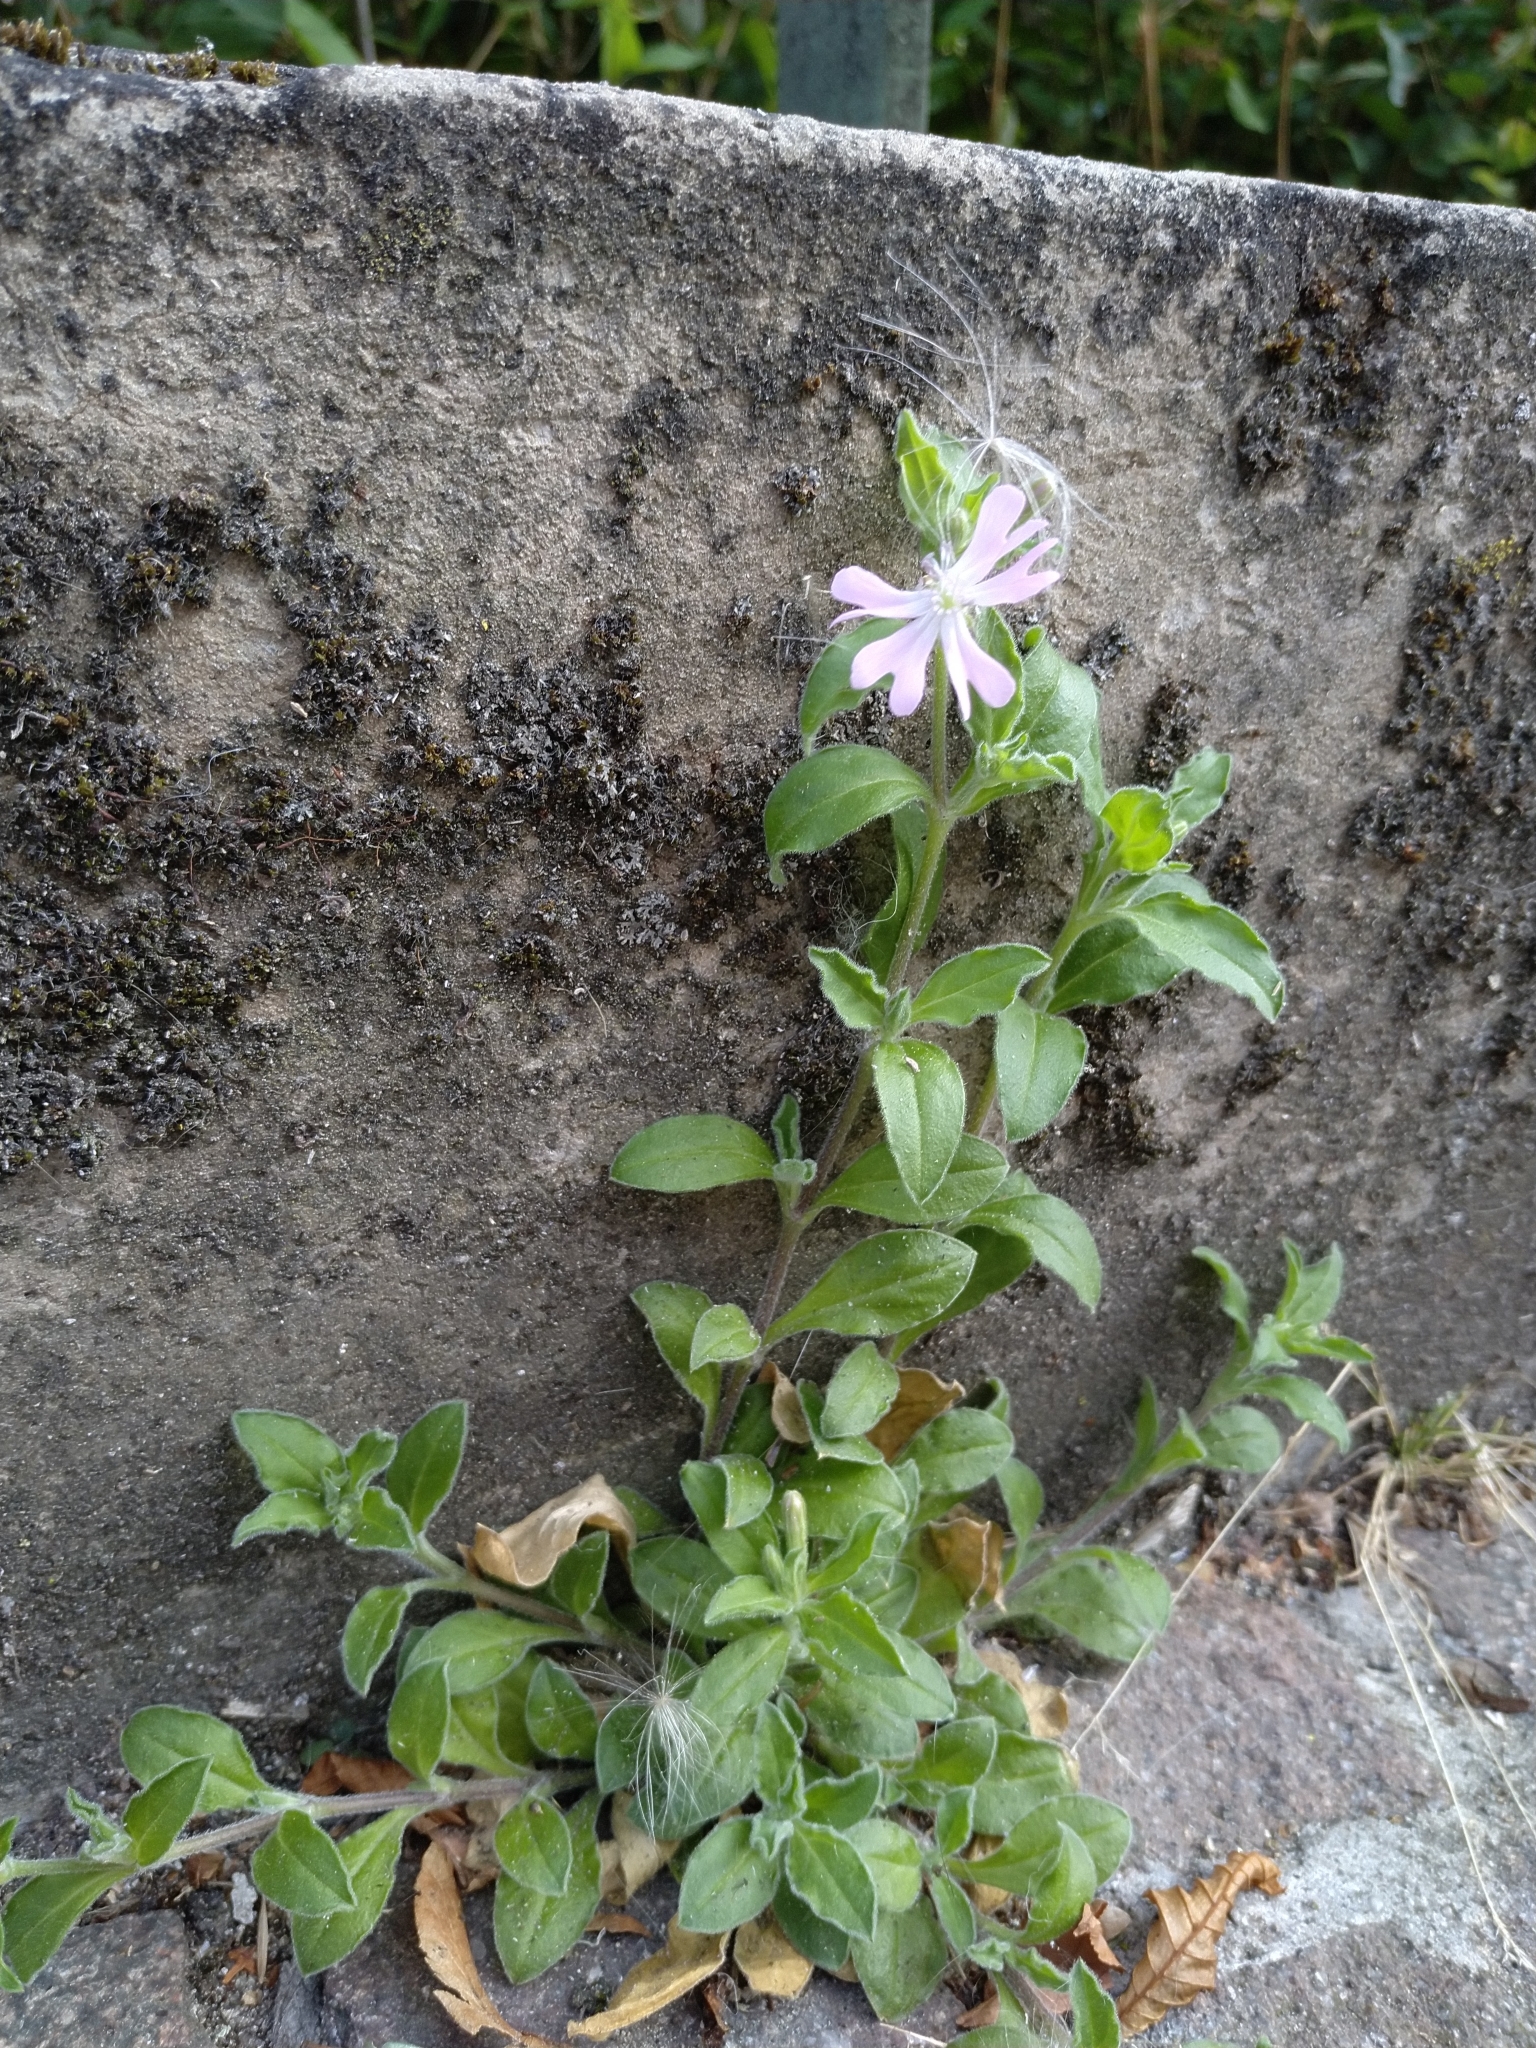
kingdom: Plantae
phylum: Tracheophyta
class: Magnoliopsida
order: Caryophyllales
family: Caryophyllaceae
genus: Silene
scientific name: Silene dioica
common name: Red campion
